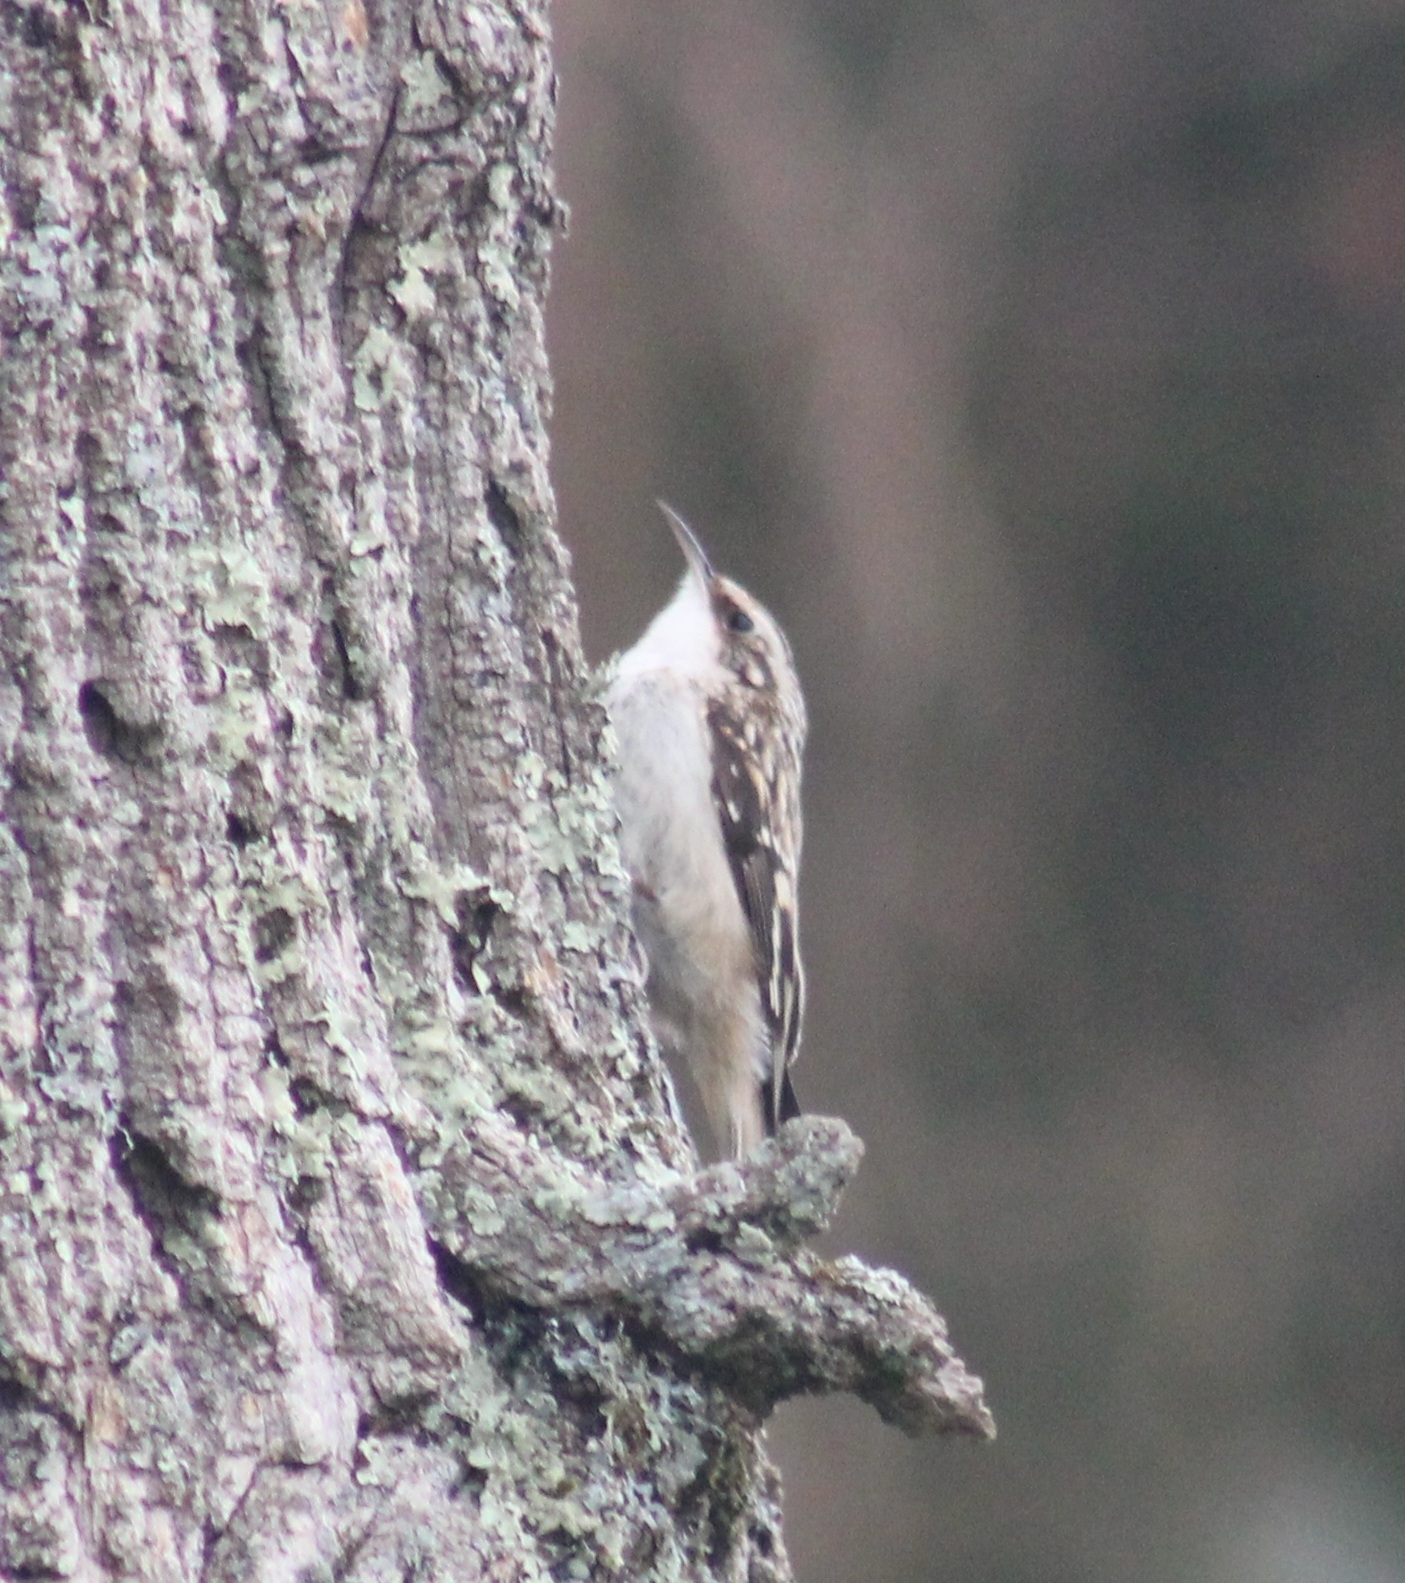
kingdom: Animalia
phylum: Chordata
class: Aves
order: Passeriformes
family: Certhiidae
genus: Certhia
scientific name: Certhia americana
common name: Brown creeper
